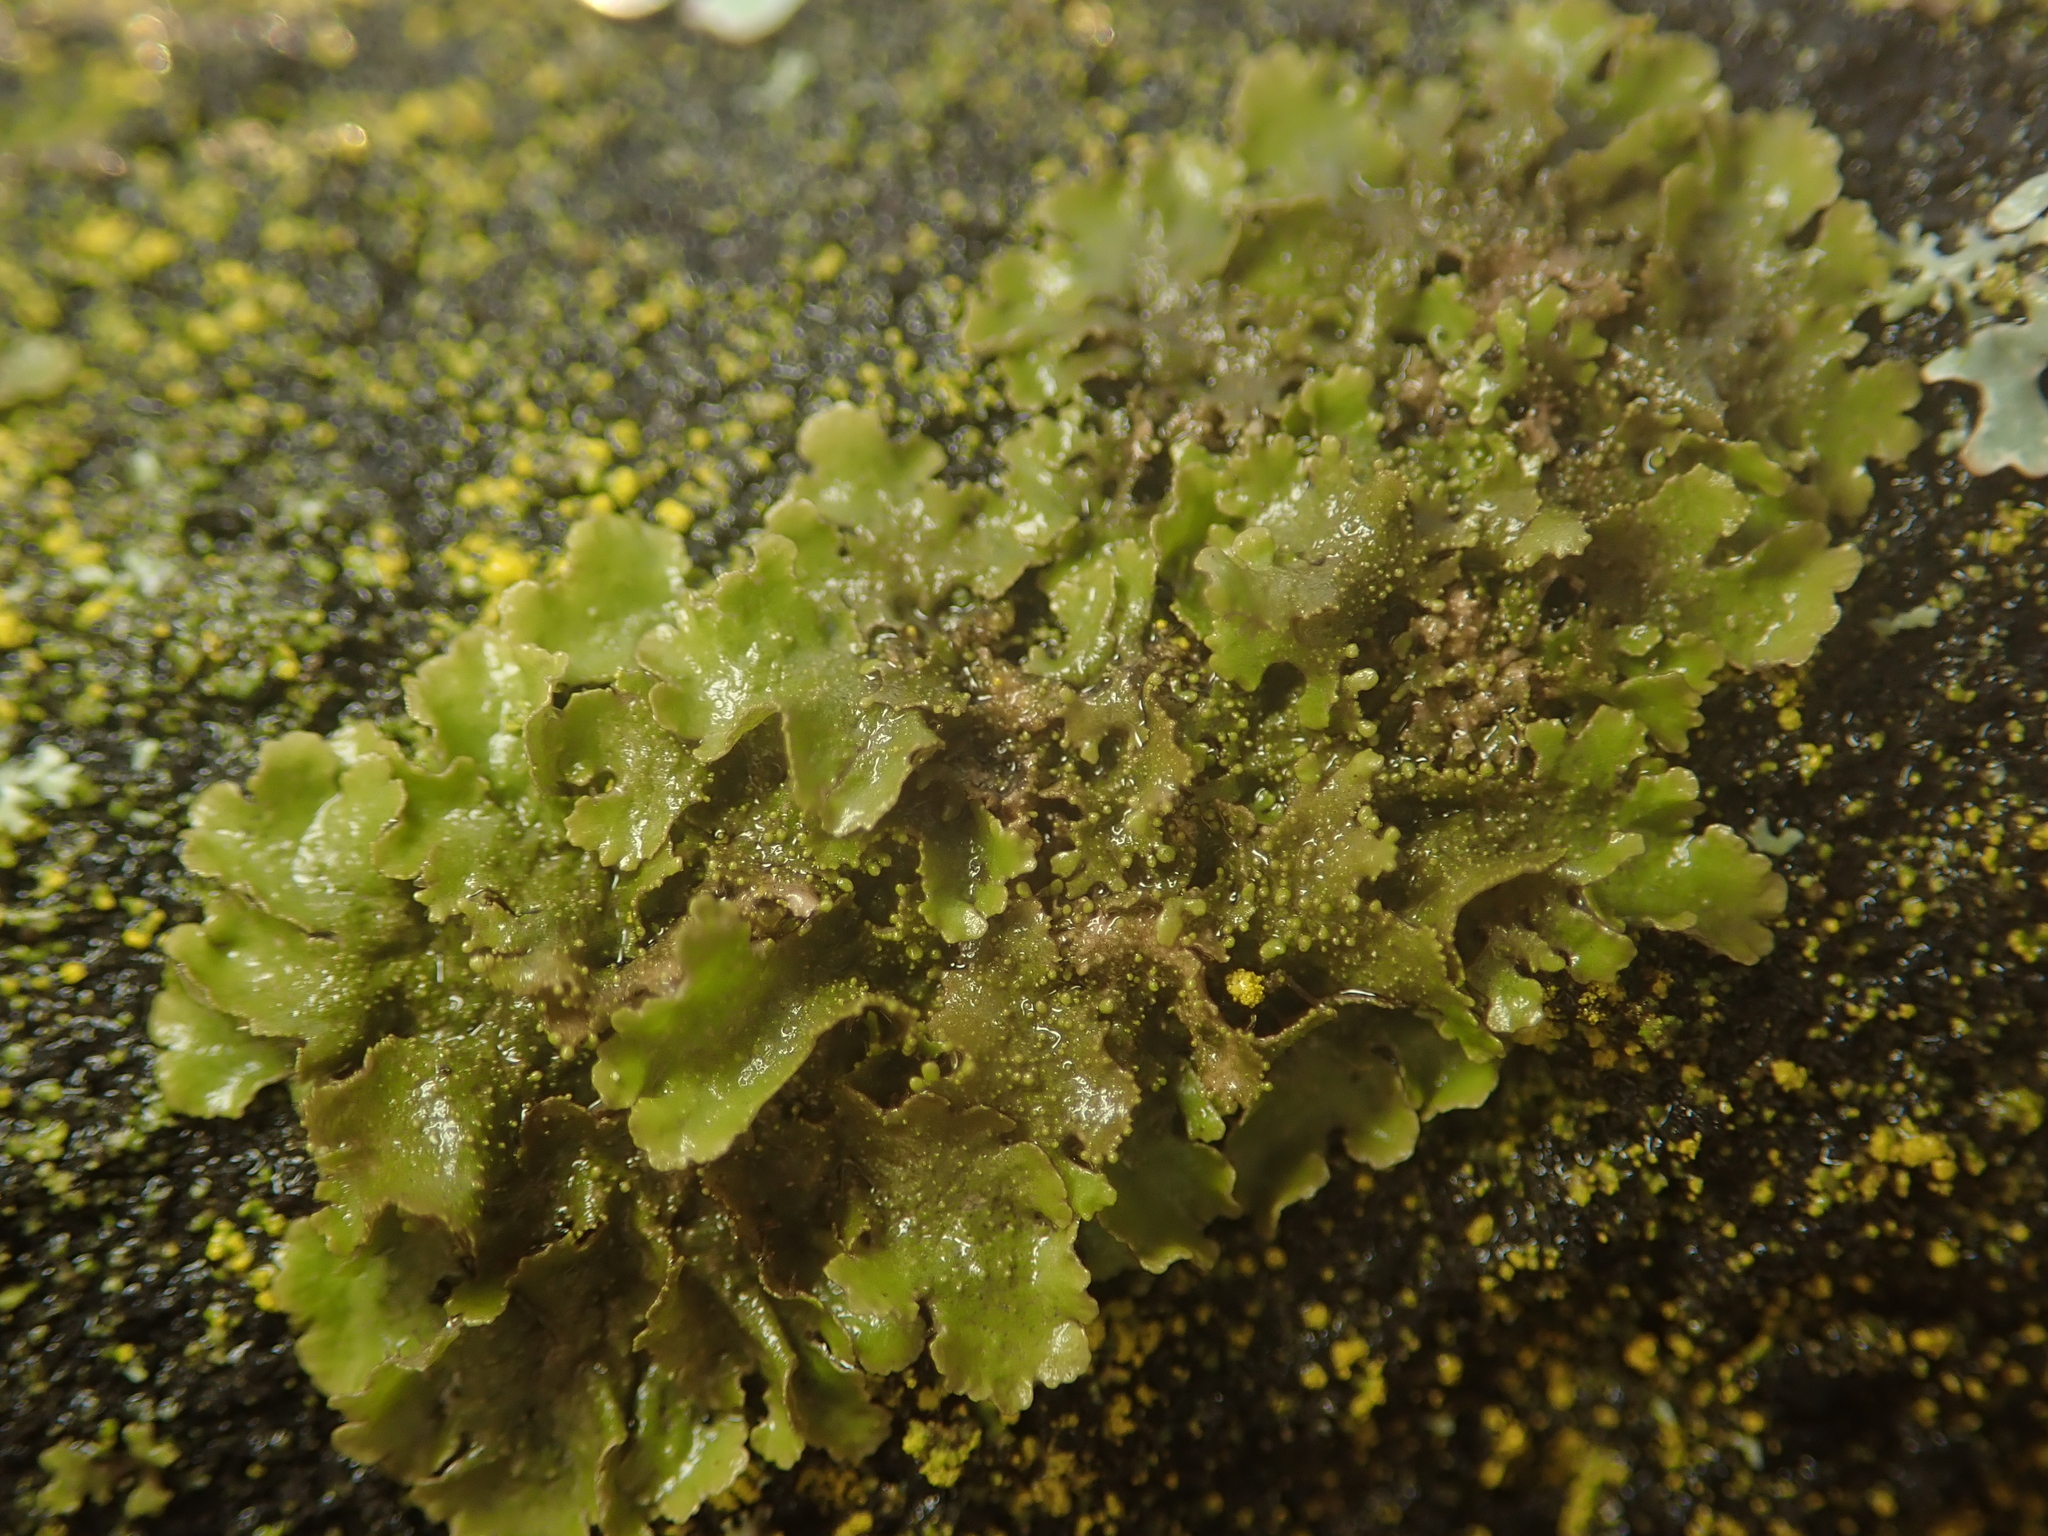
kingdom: Fungi
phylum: Ascomycota
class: Lecanoromycetes
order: Lecanorales
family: Parmeliaceae
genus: Melanohalea
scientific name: Melanohalea exasperatula
